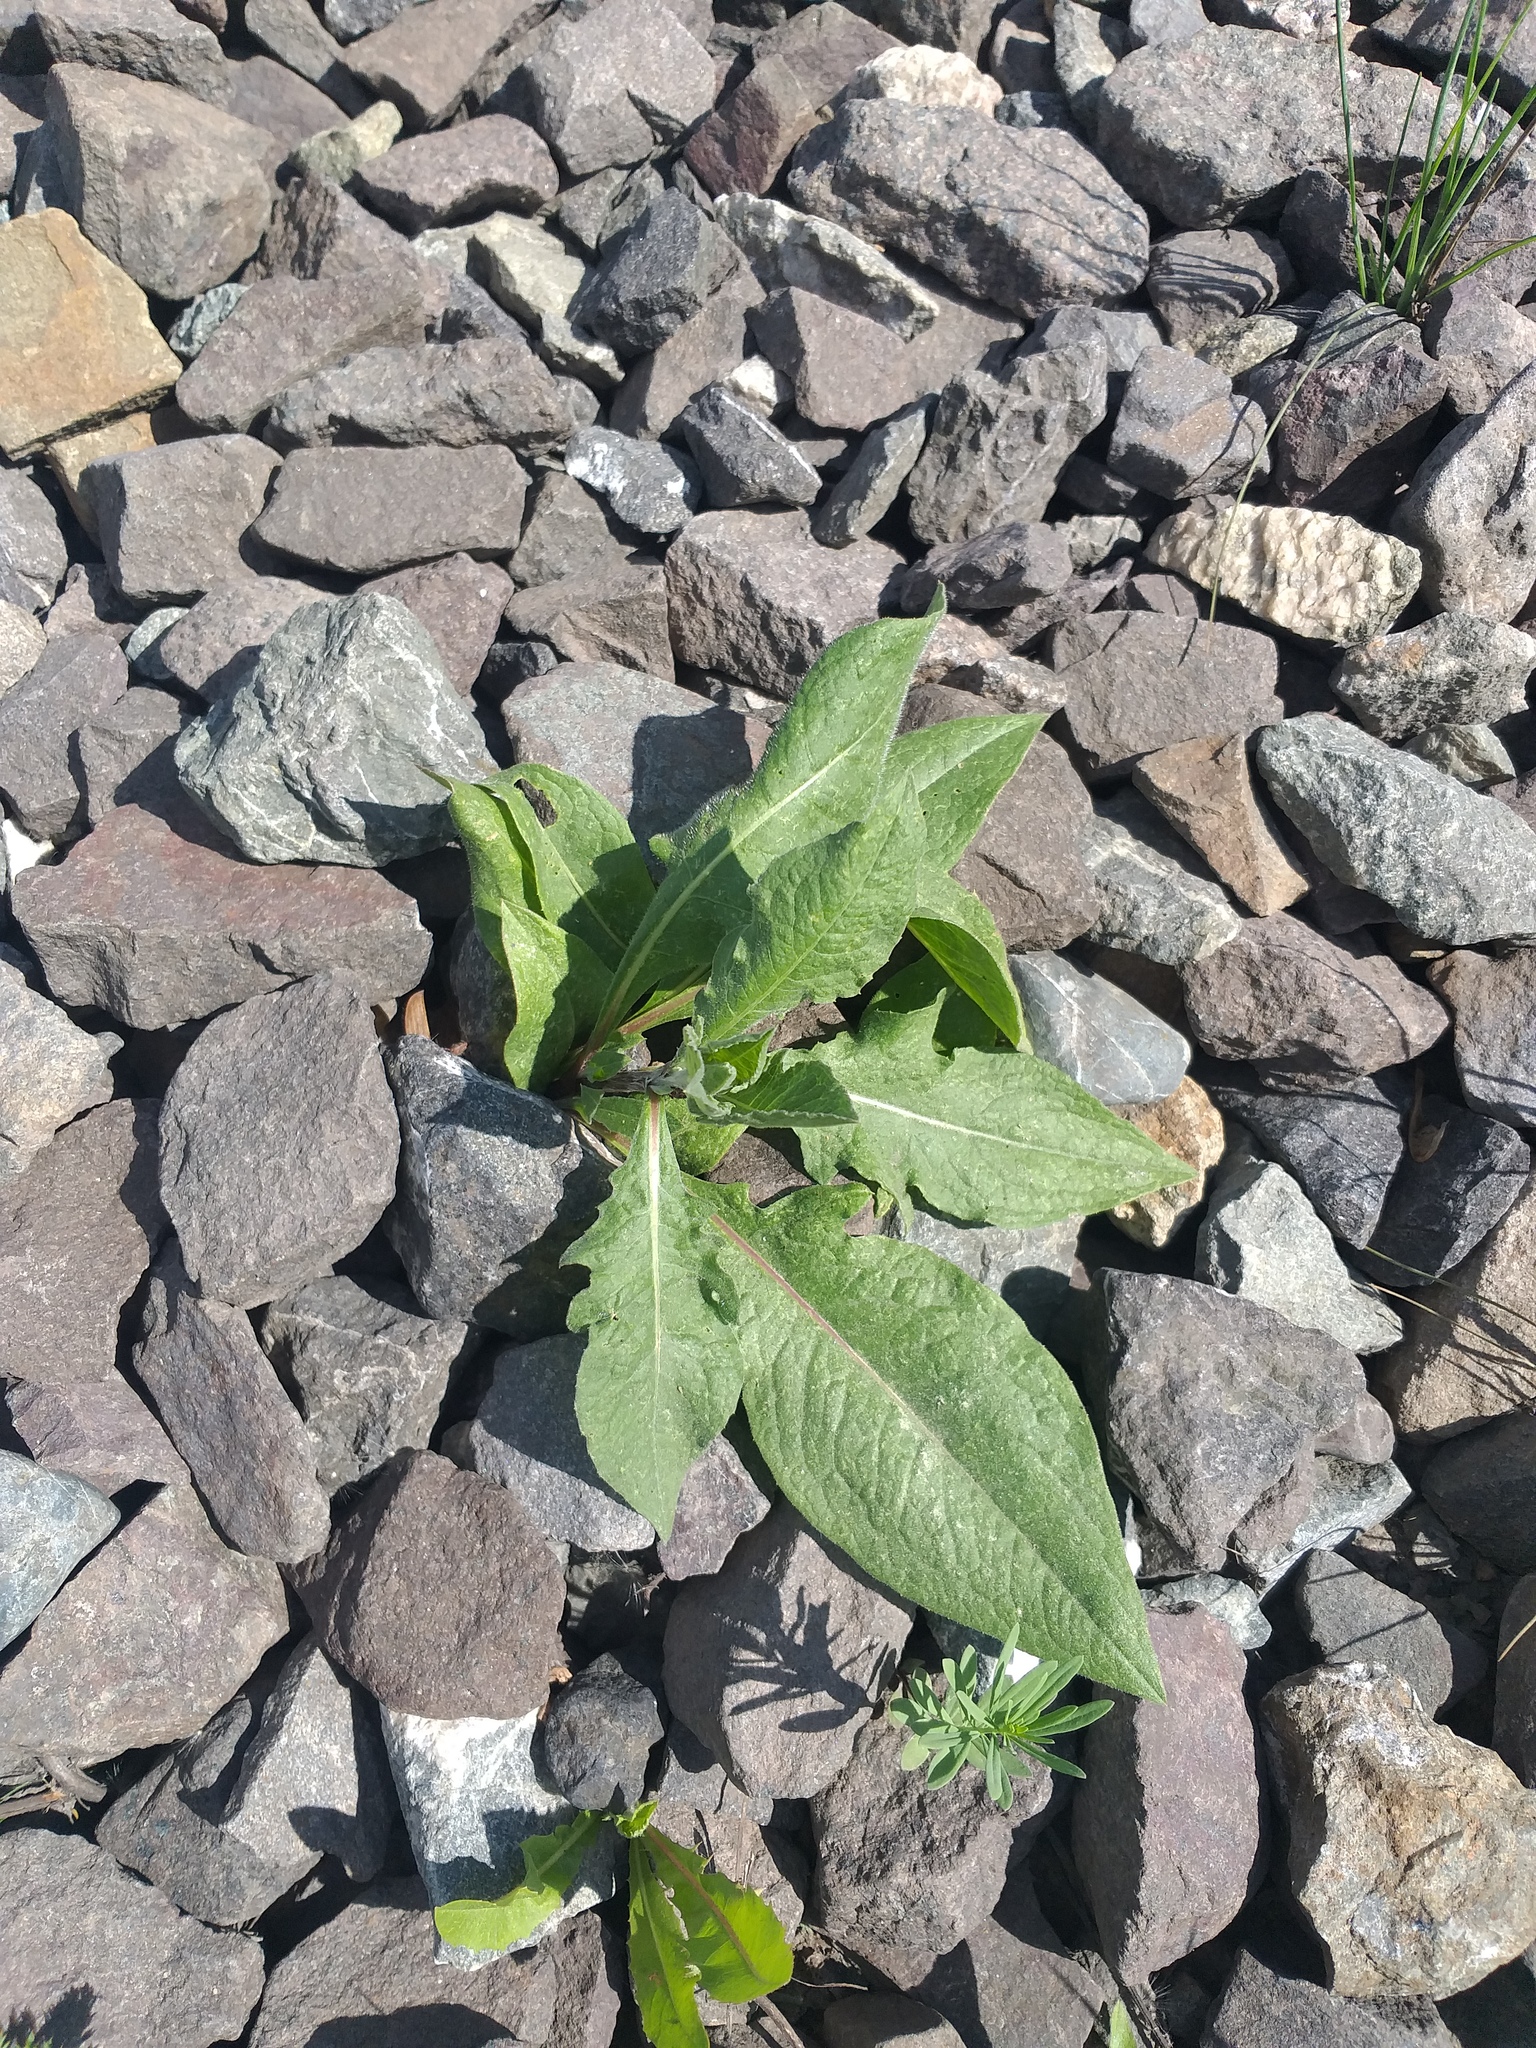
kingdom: Plantae
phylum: Tracheophyta
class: Magnoliopsida
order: Asterales
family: Asteraceae
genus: Centaurea
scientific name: Centaurea phrygia
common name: Wig knapweed
